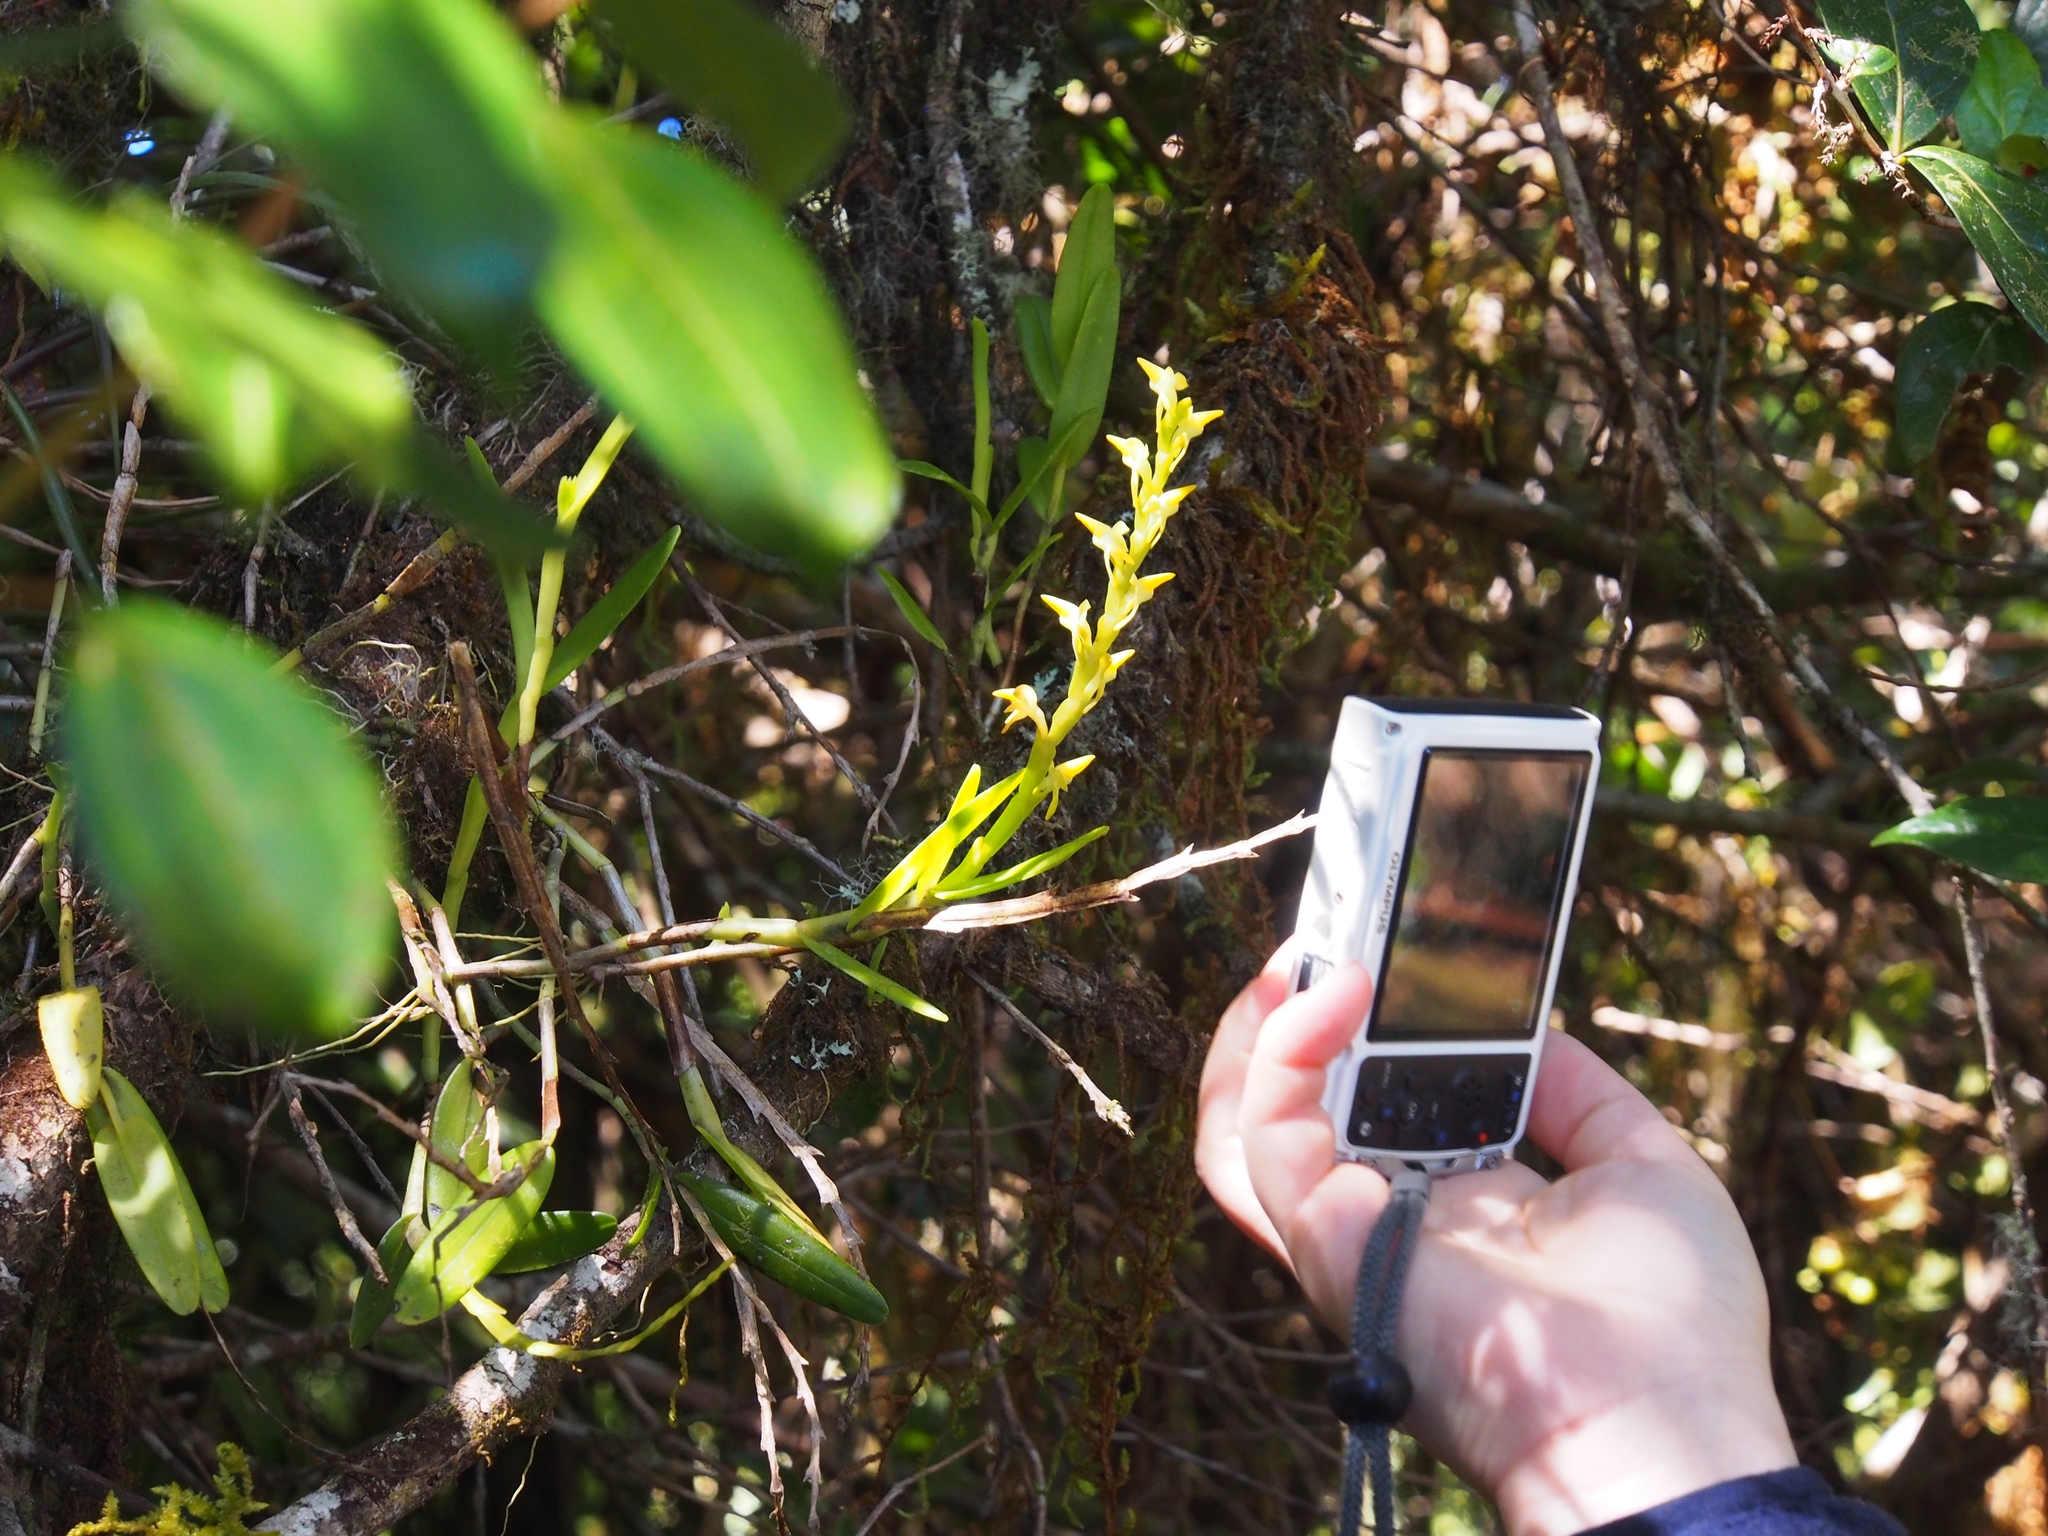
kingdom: Plantae
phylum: Tracheophyta
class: Liliopsida
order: Asparagales
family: Orchidaceae
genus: Epidendrum
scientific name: Epidendrum anoglossum
